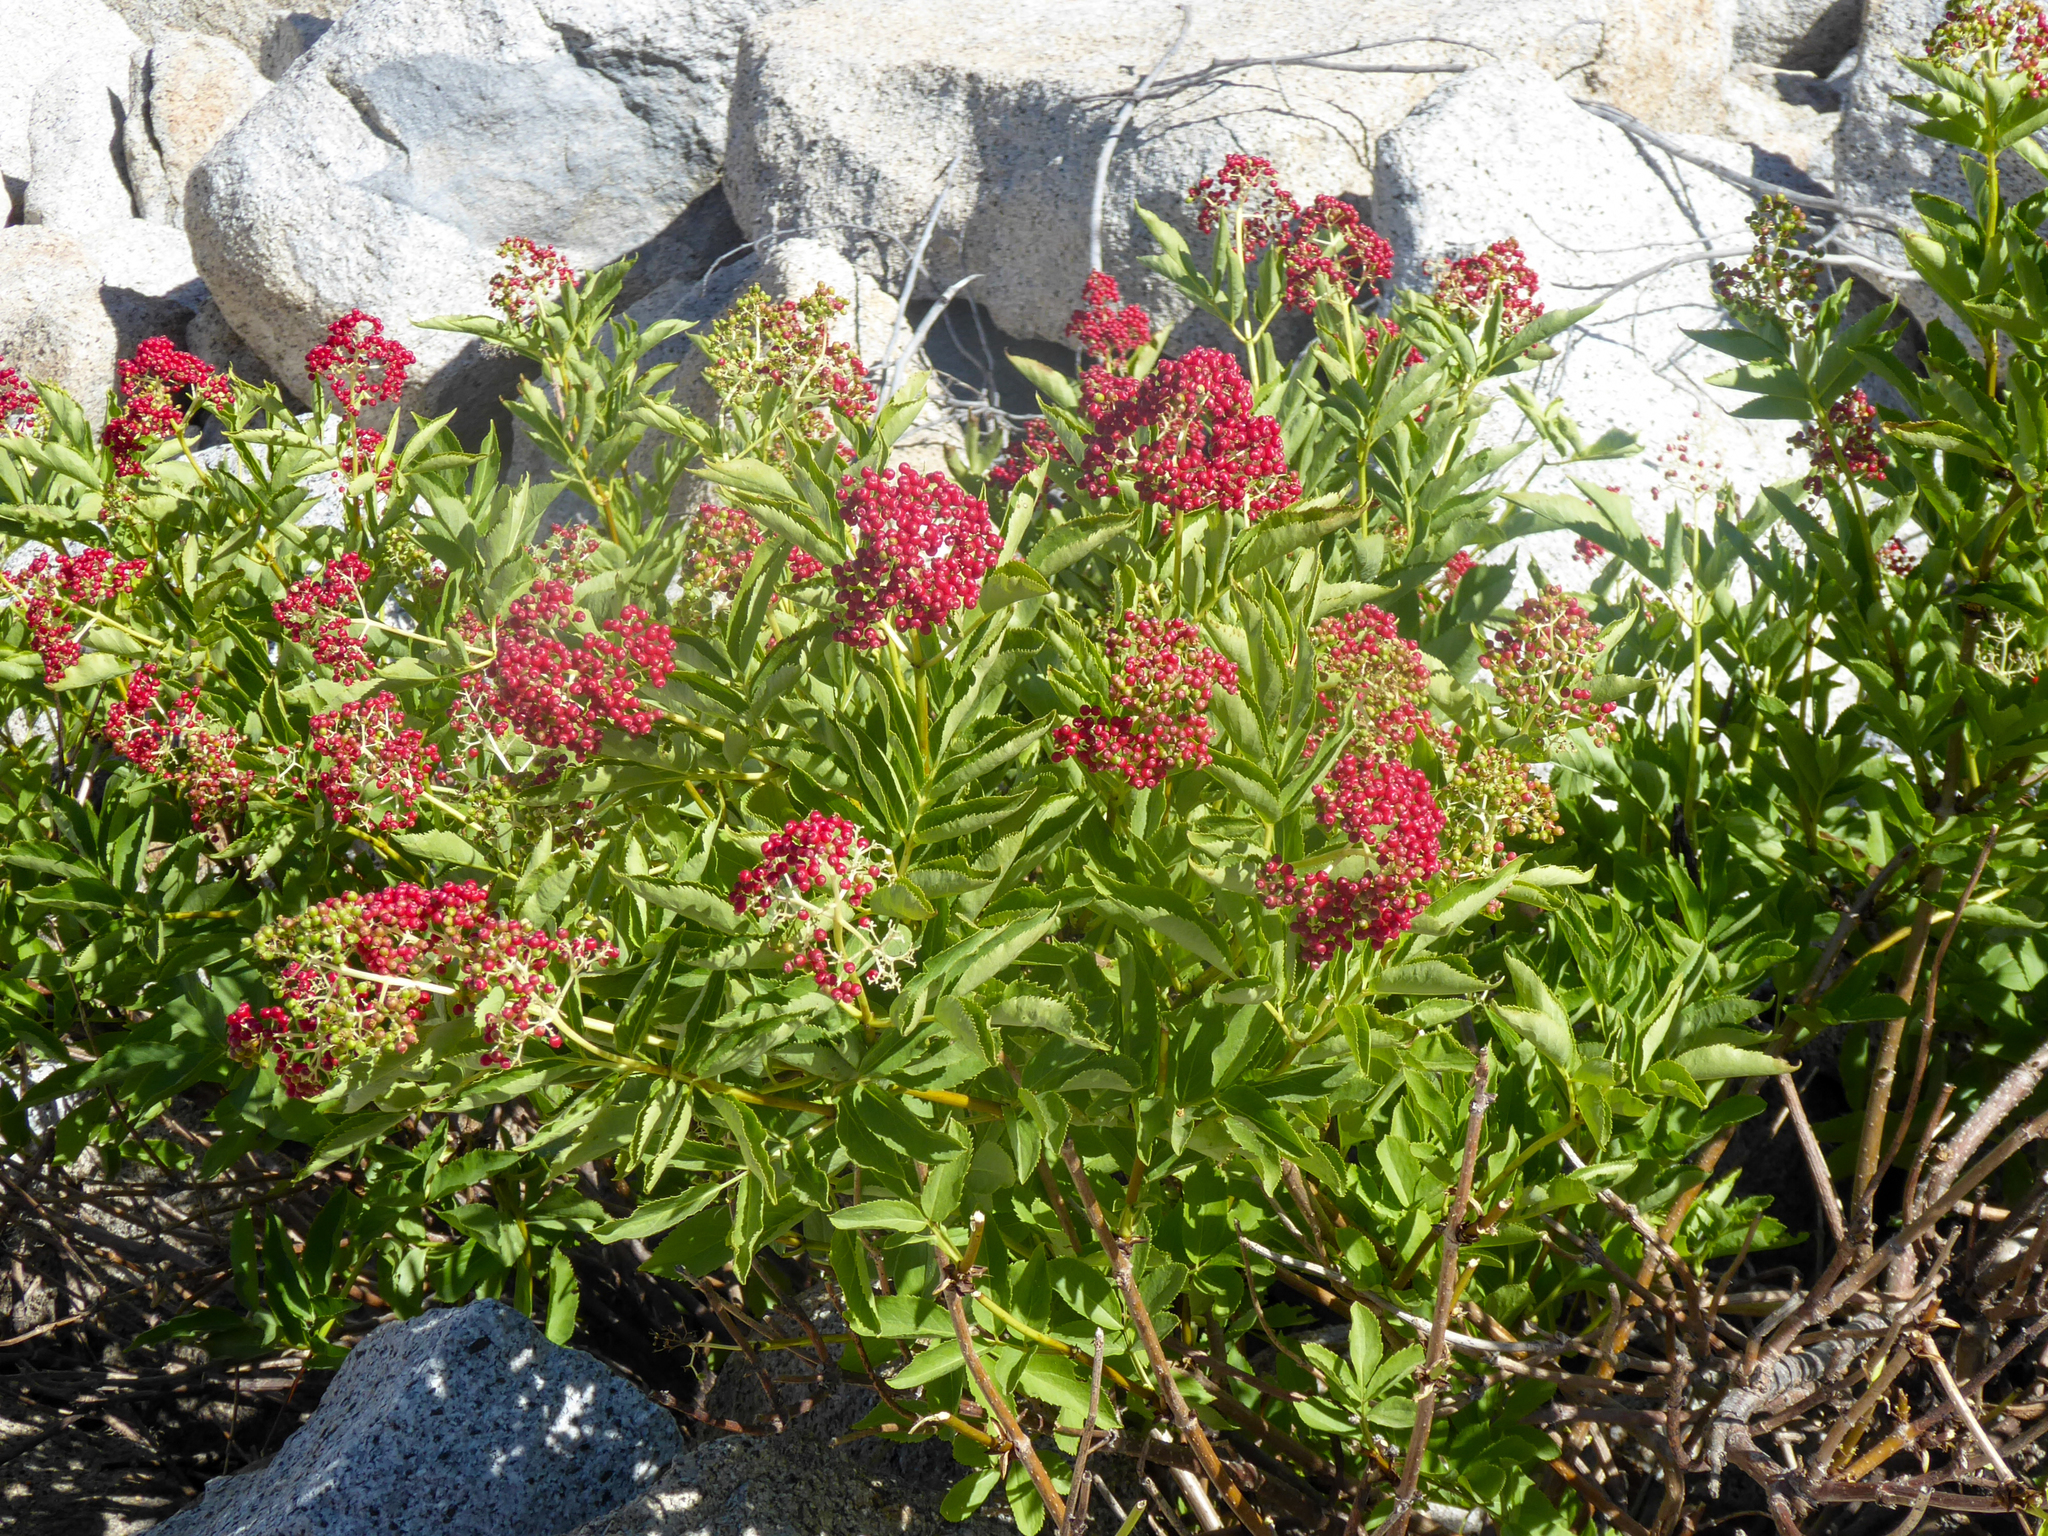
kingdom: Plantae
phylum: Tracheophyta
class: Magnoliopsida
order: Dipsacales
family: Viburnaceae
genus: Sambucus
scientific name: Sambucus racemosa
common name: Red-berried elder
